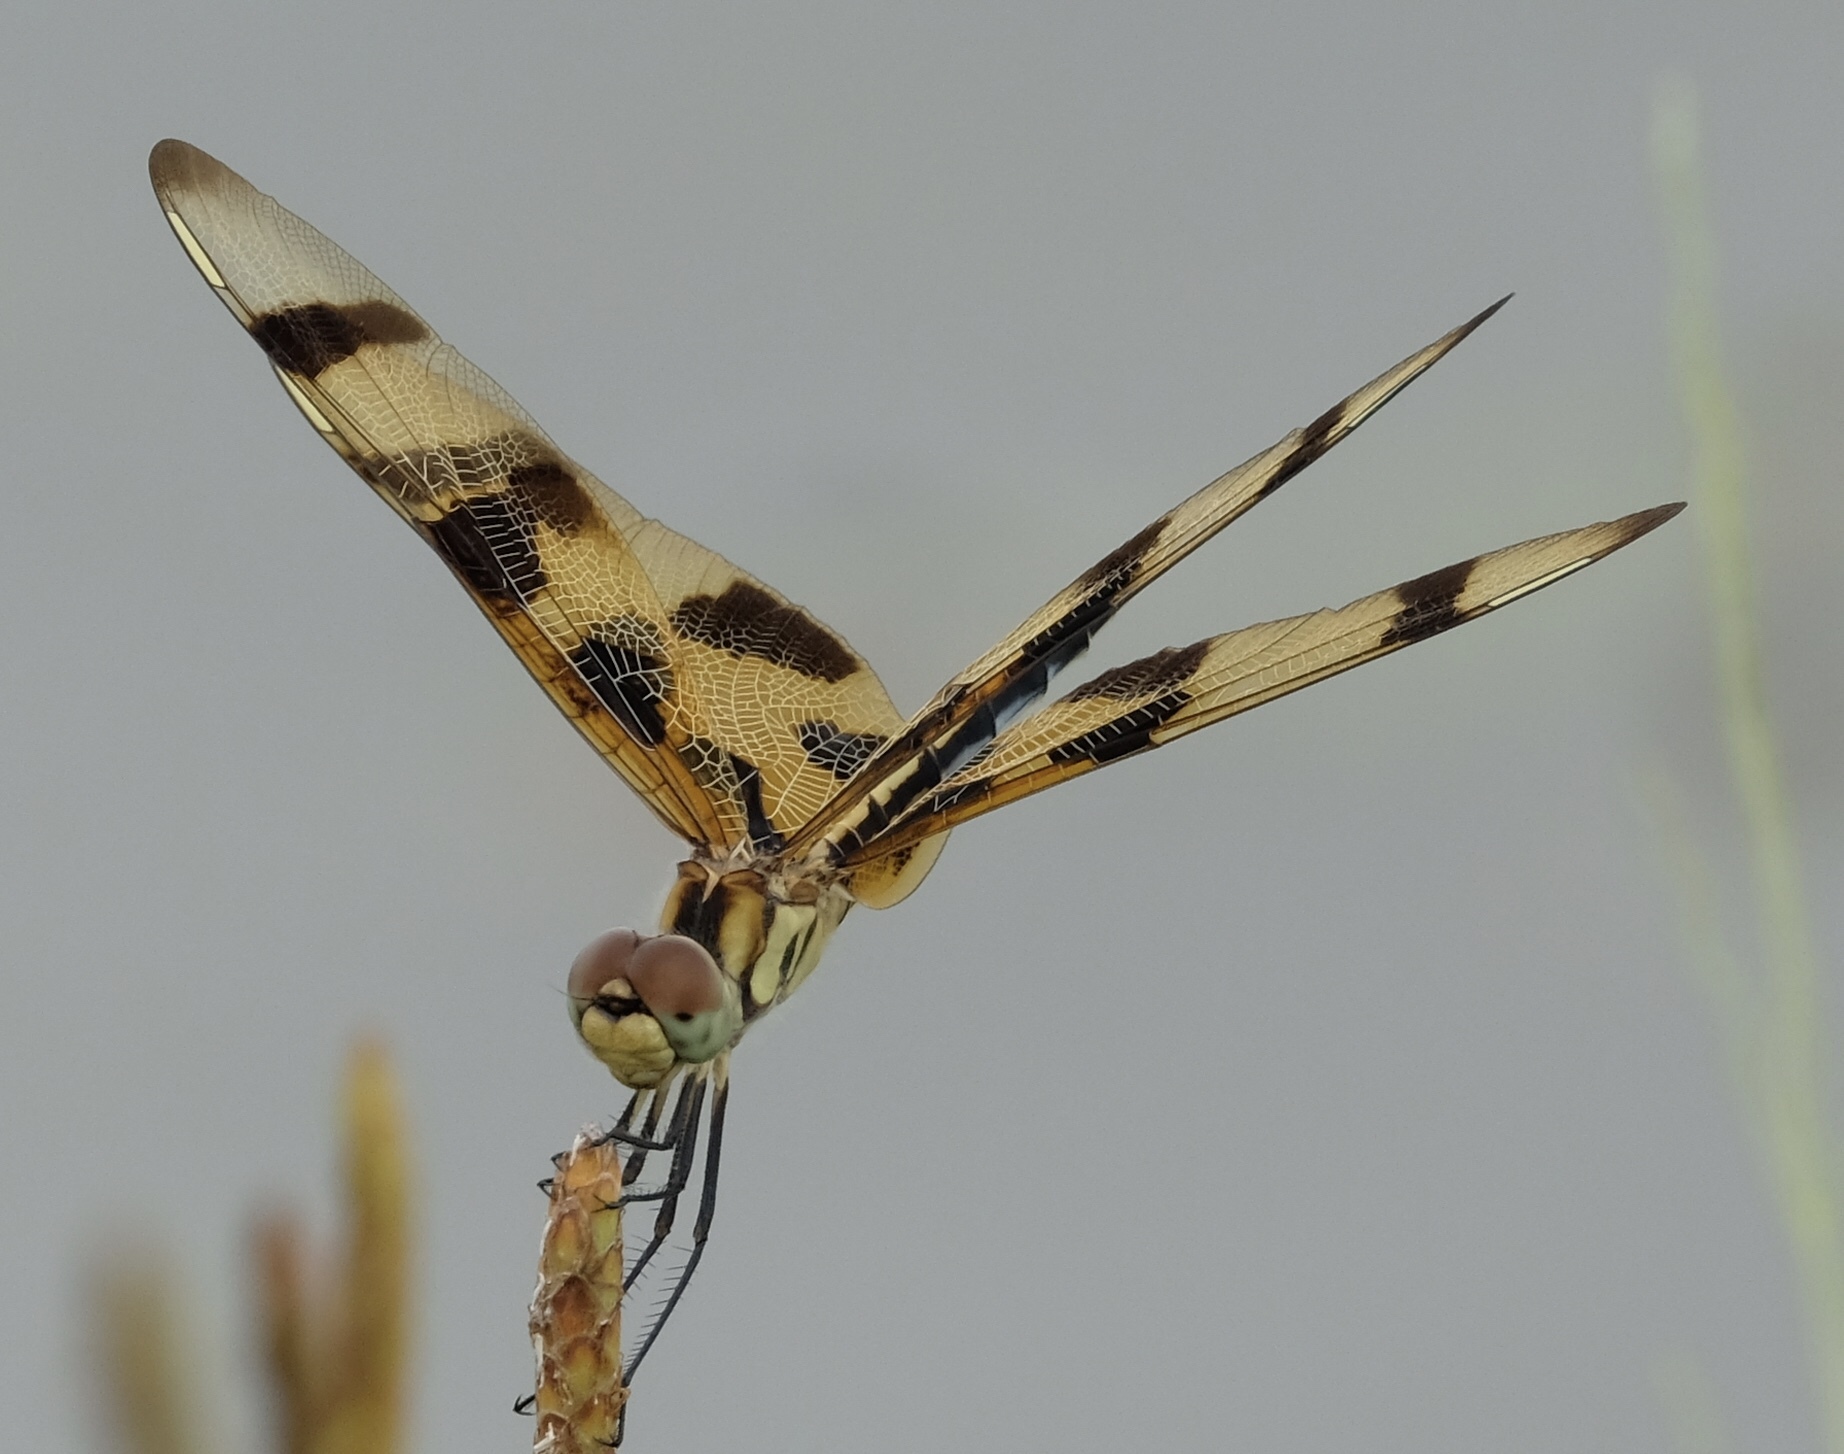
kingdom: Animalia
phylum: Arthropoda
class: Insecta
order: Odonata
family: Libellulidae
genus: Celithemis
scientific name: Celithemis eponina
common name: Halloween pennant
